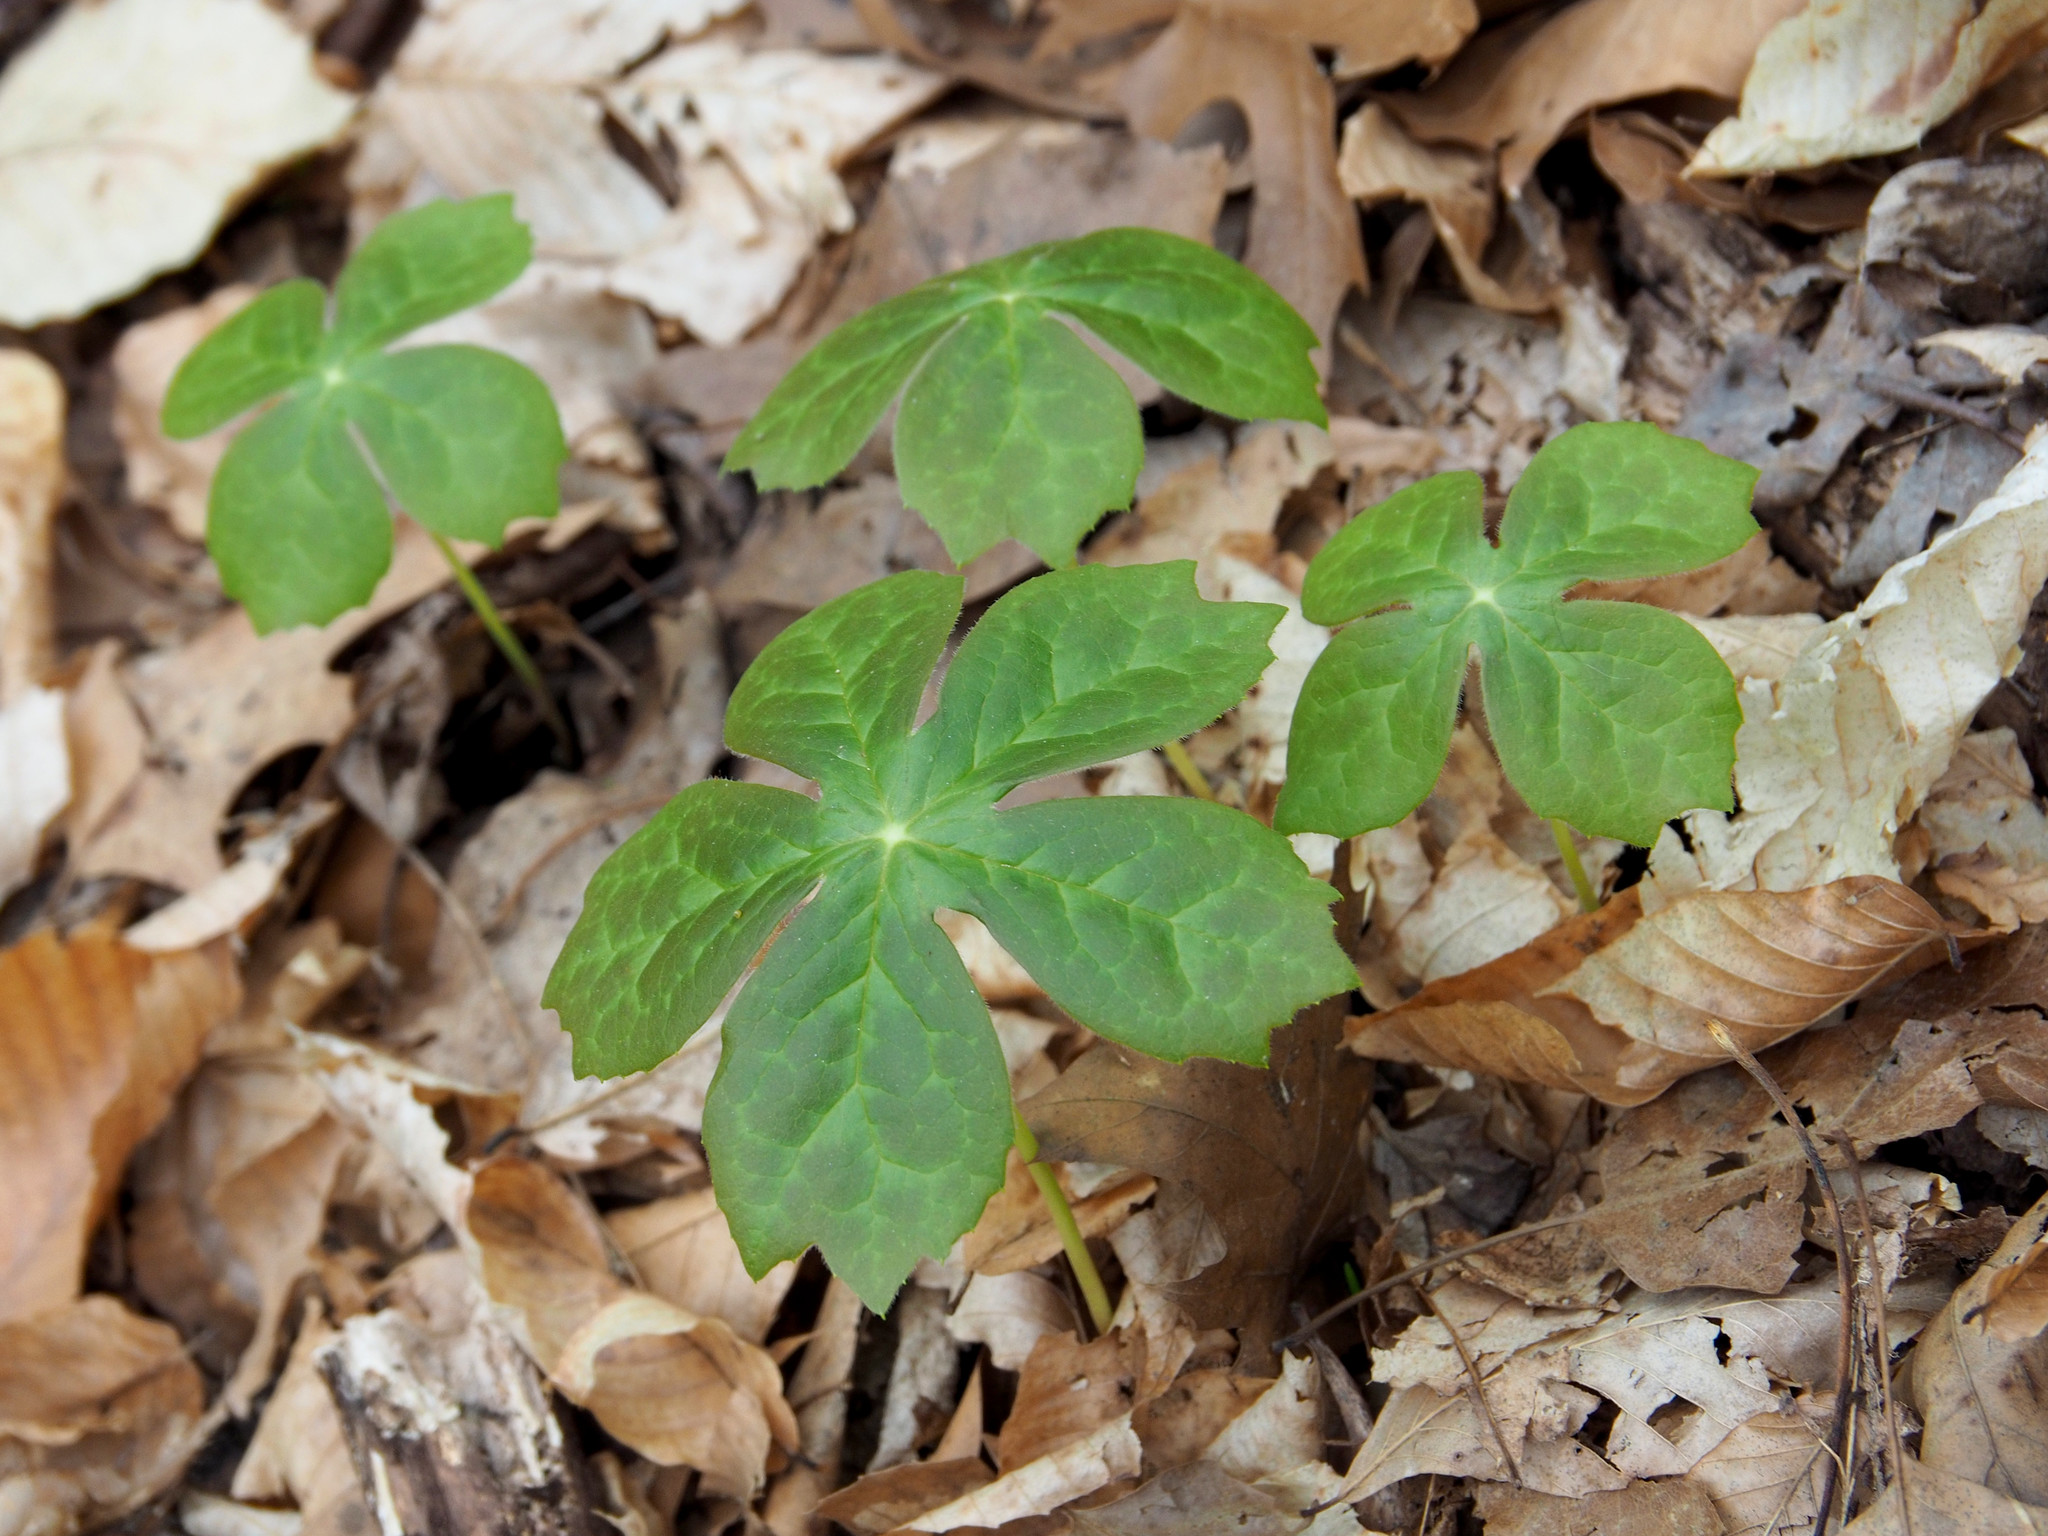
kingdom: Plantae
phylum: Tracheophyta
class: Magnoliopsida
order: Ranunculales
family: Berberidaceae
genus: Podophyllum
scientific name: Podophyllum peltatum
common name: Wild mandrake
